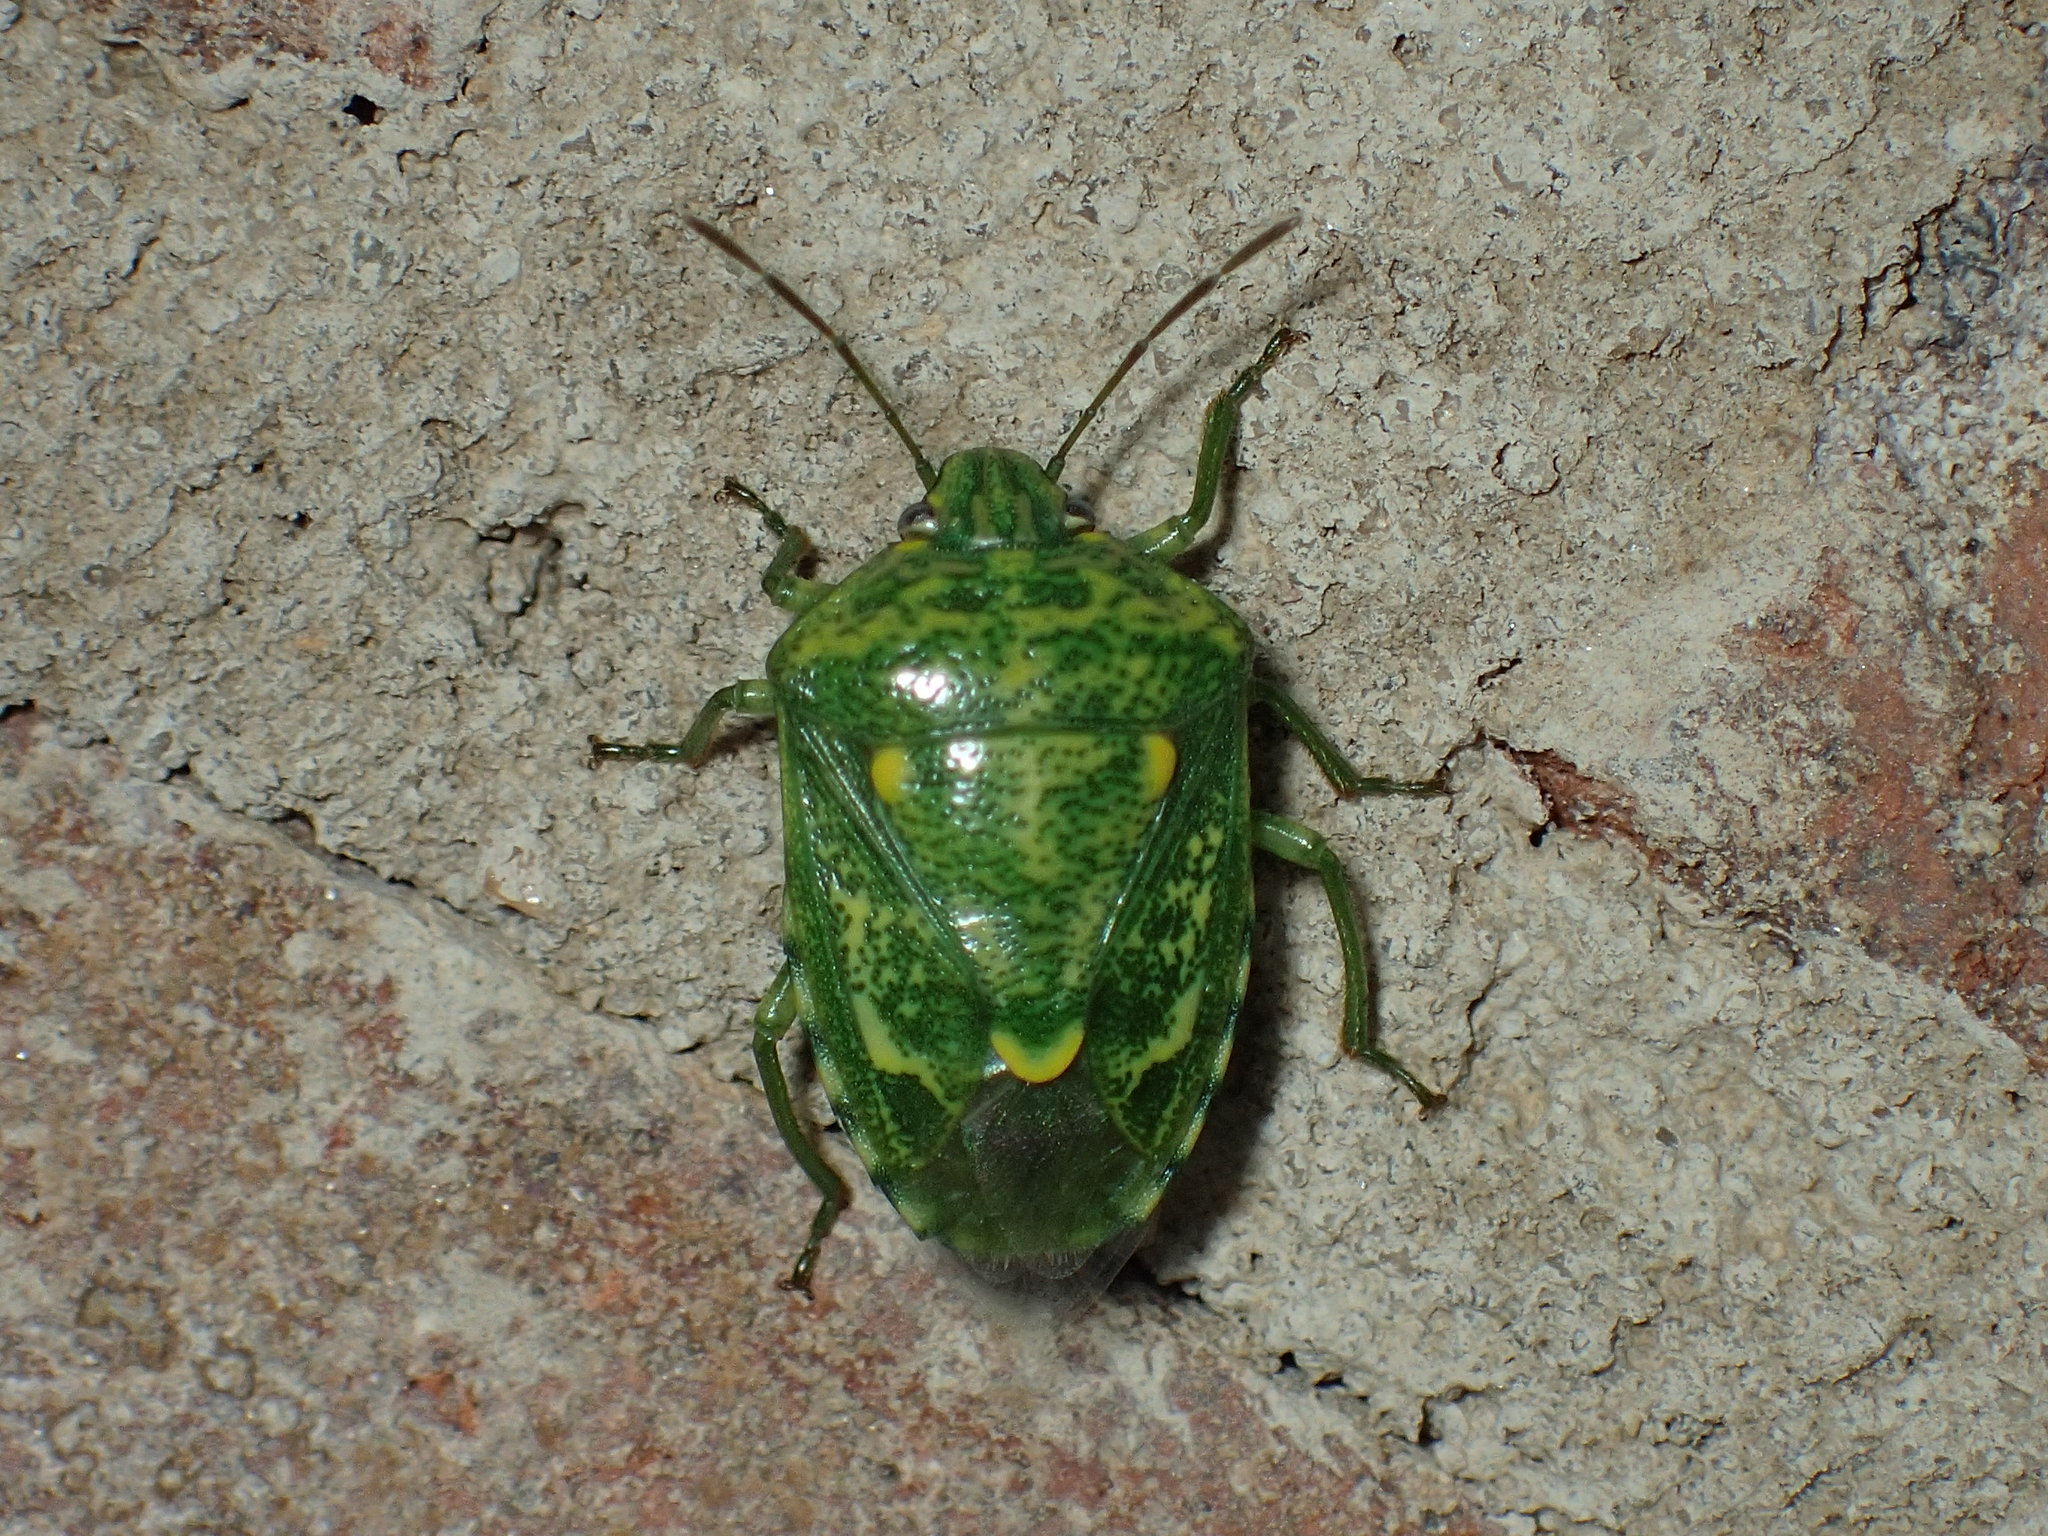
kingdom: Animalia
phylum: Arthropoda
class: Insecta
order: Hemiptera
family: Pentatomidae
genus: Banasa
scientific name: Banasa euchlora
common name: Cedar berry bug
